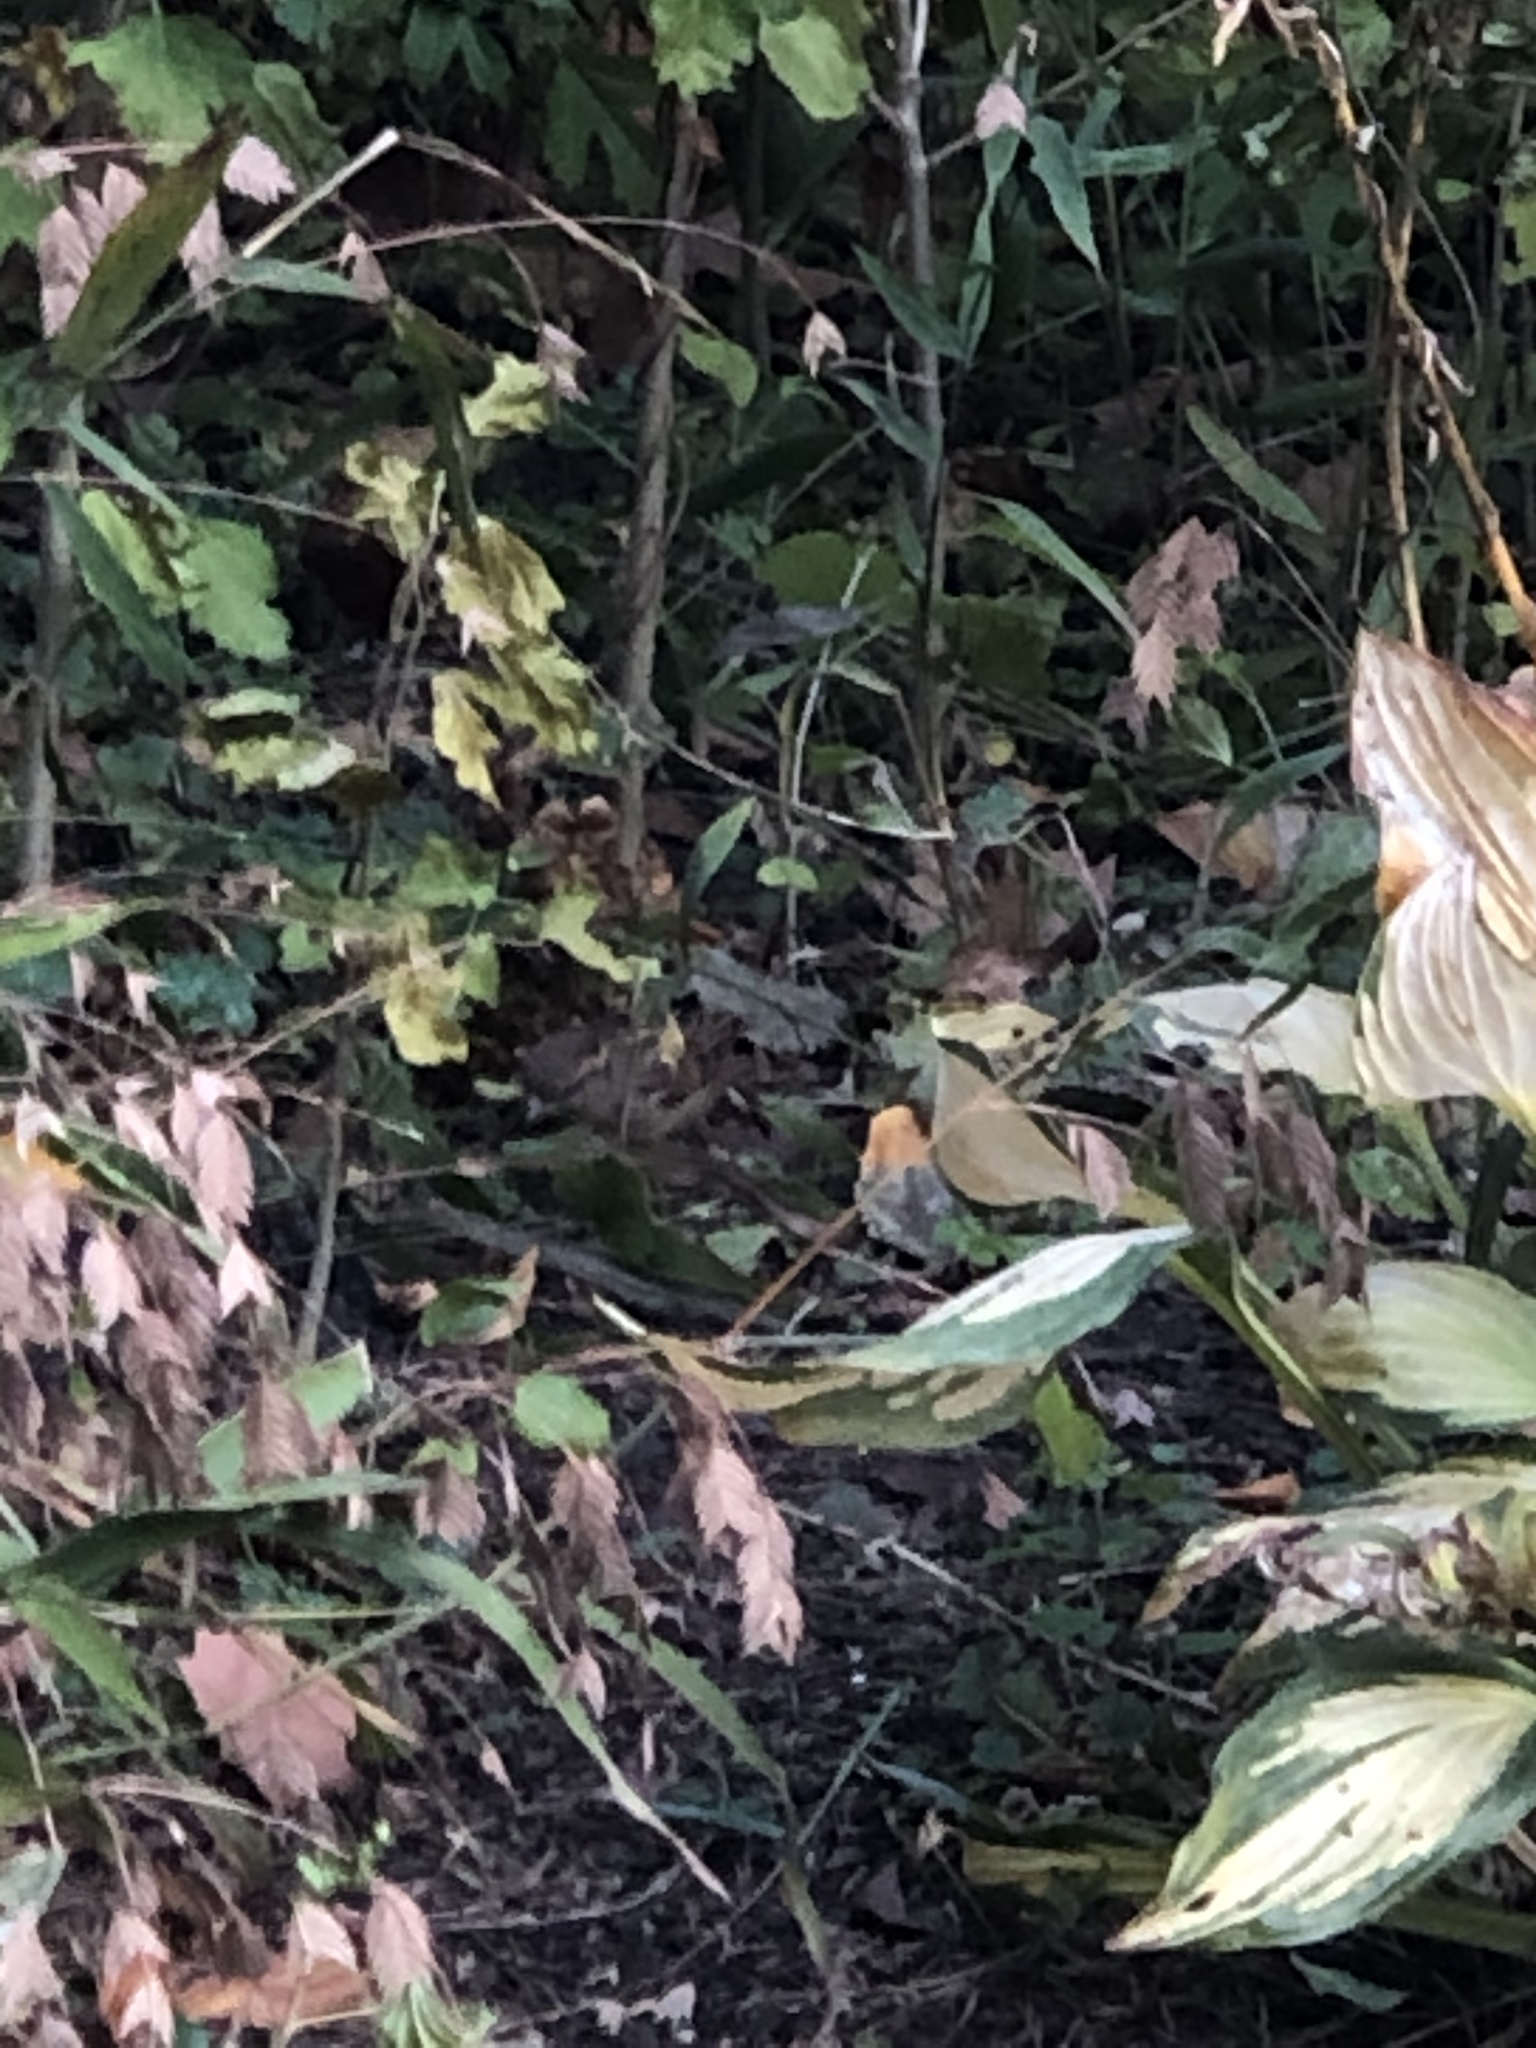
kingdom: Animalia
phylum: Chordata
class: Aves
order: Passeriformes
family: Passeridae
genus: Passer
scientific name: Passer domesticus
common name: House sparrow
